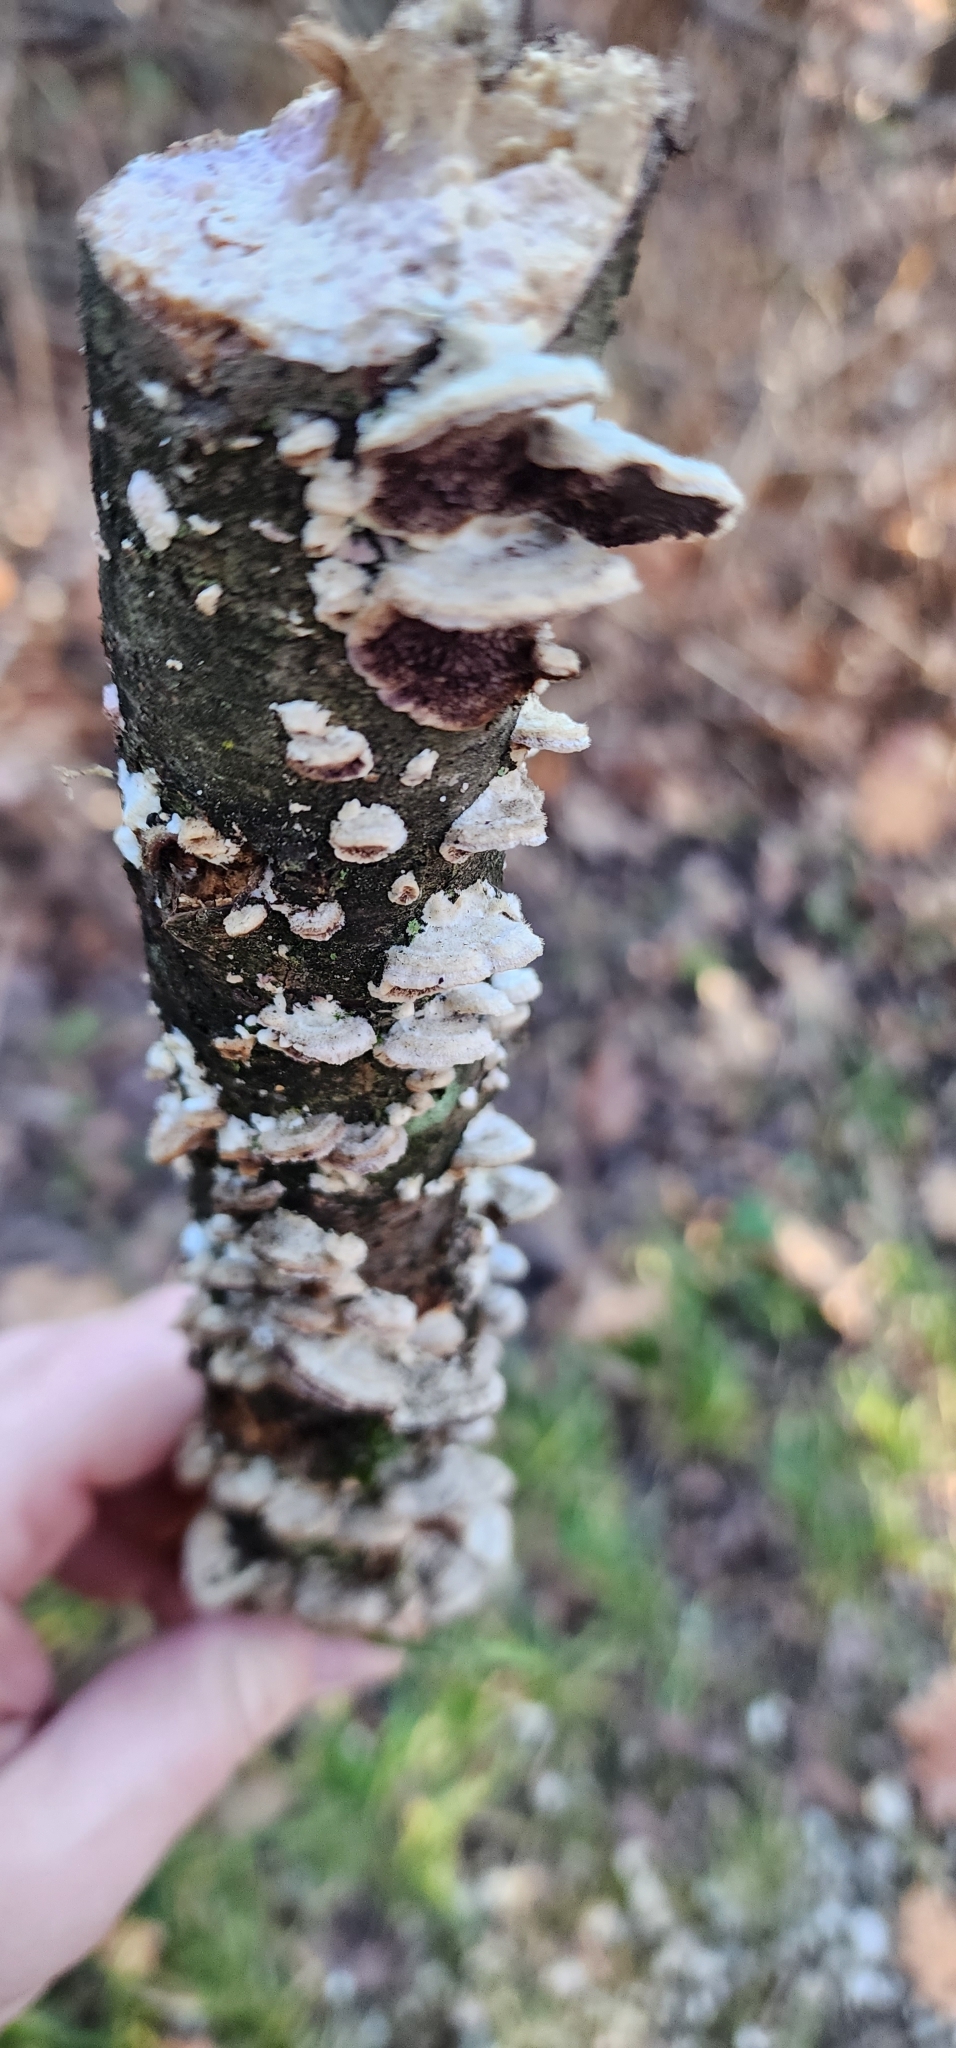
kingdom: Fungi
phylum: Basidiomycota
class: Agaricomycetes
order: Hymenochaetales
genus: Trichaptum
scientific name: Trichaptum biforme
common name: Violet-toothed polypore
